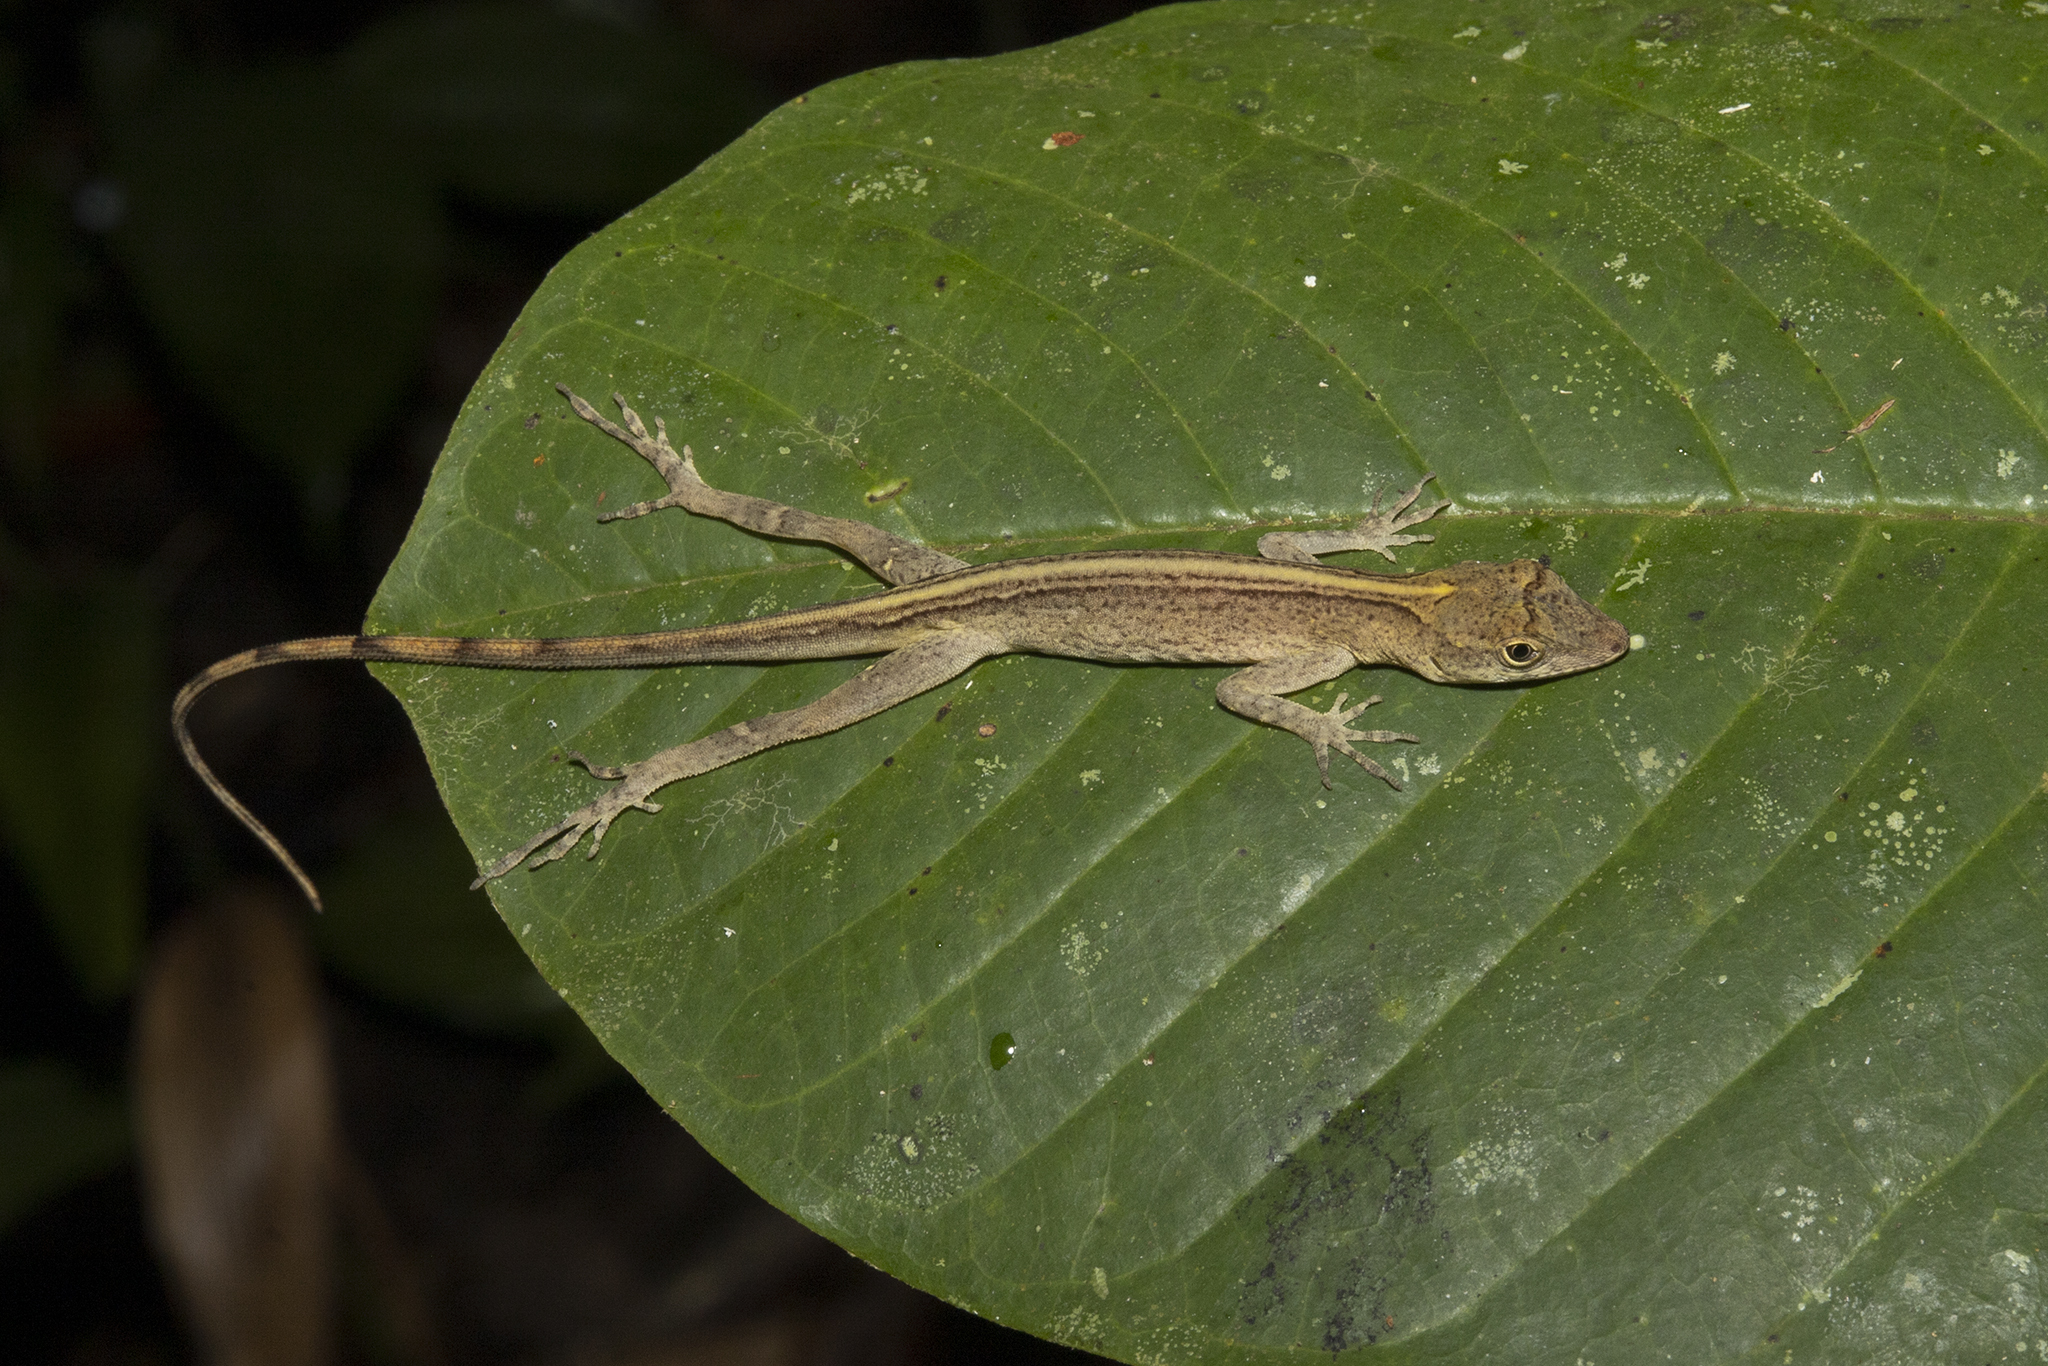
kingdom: Animalia
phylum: Chordata
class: Squamata
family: Dactyloidae
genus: Anolis
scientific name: Anolis fuscoauratus
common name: Brown-eared anole
